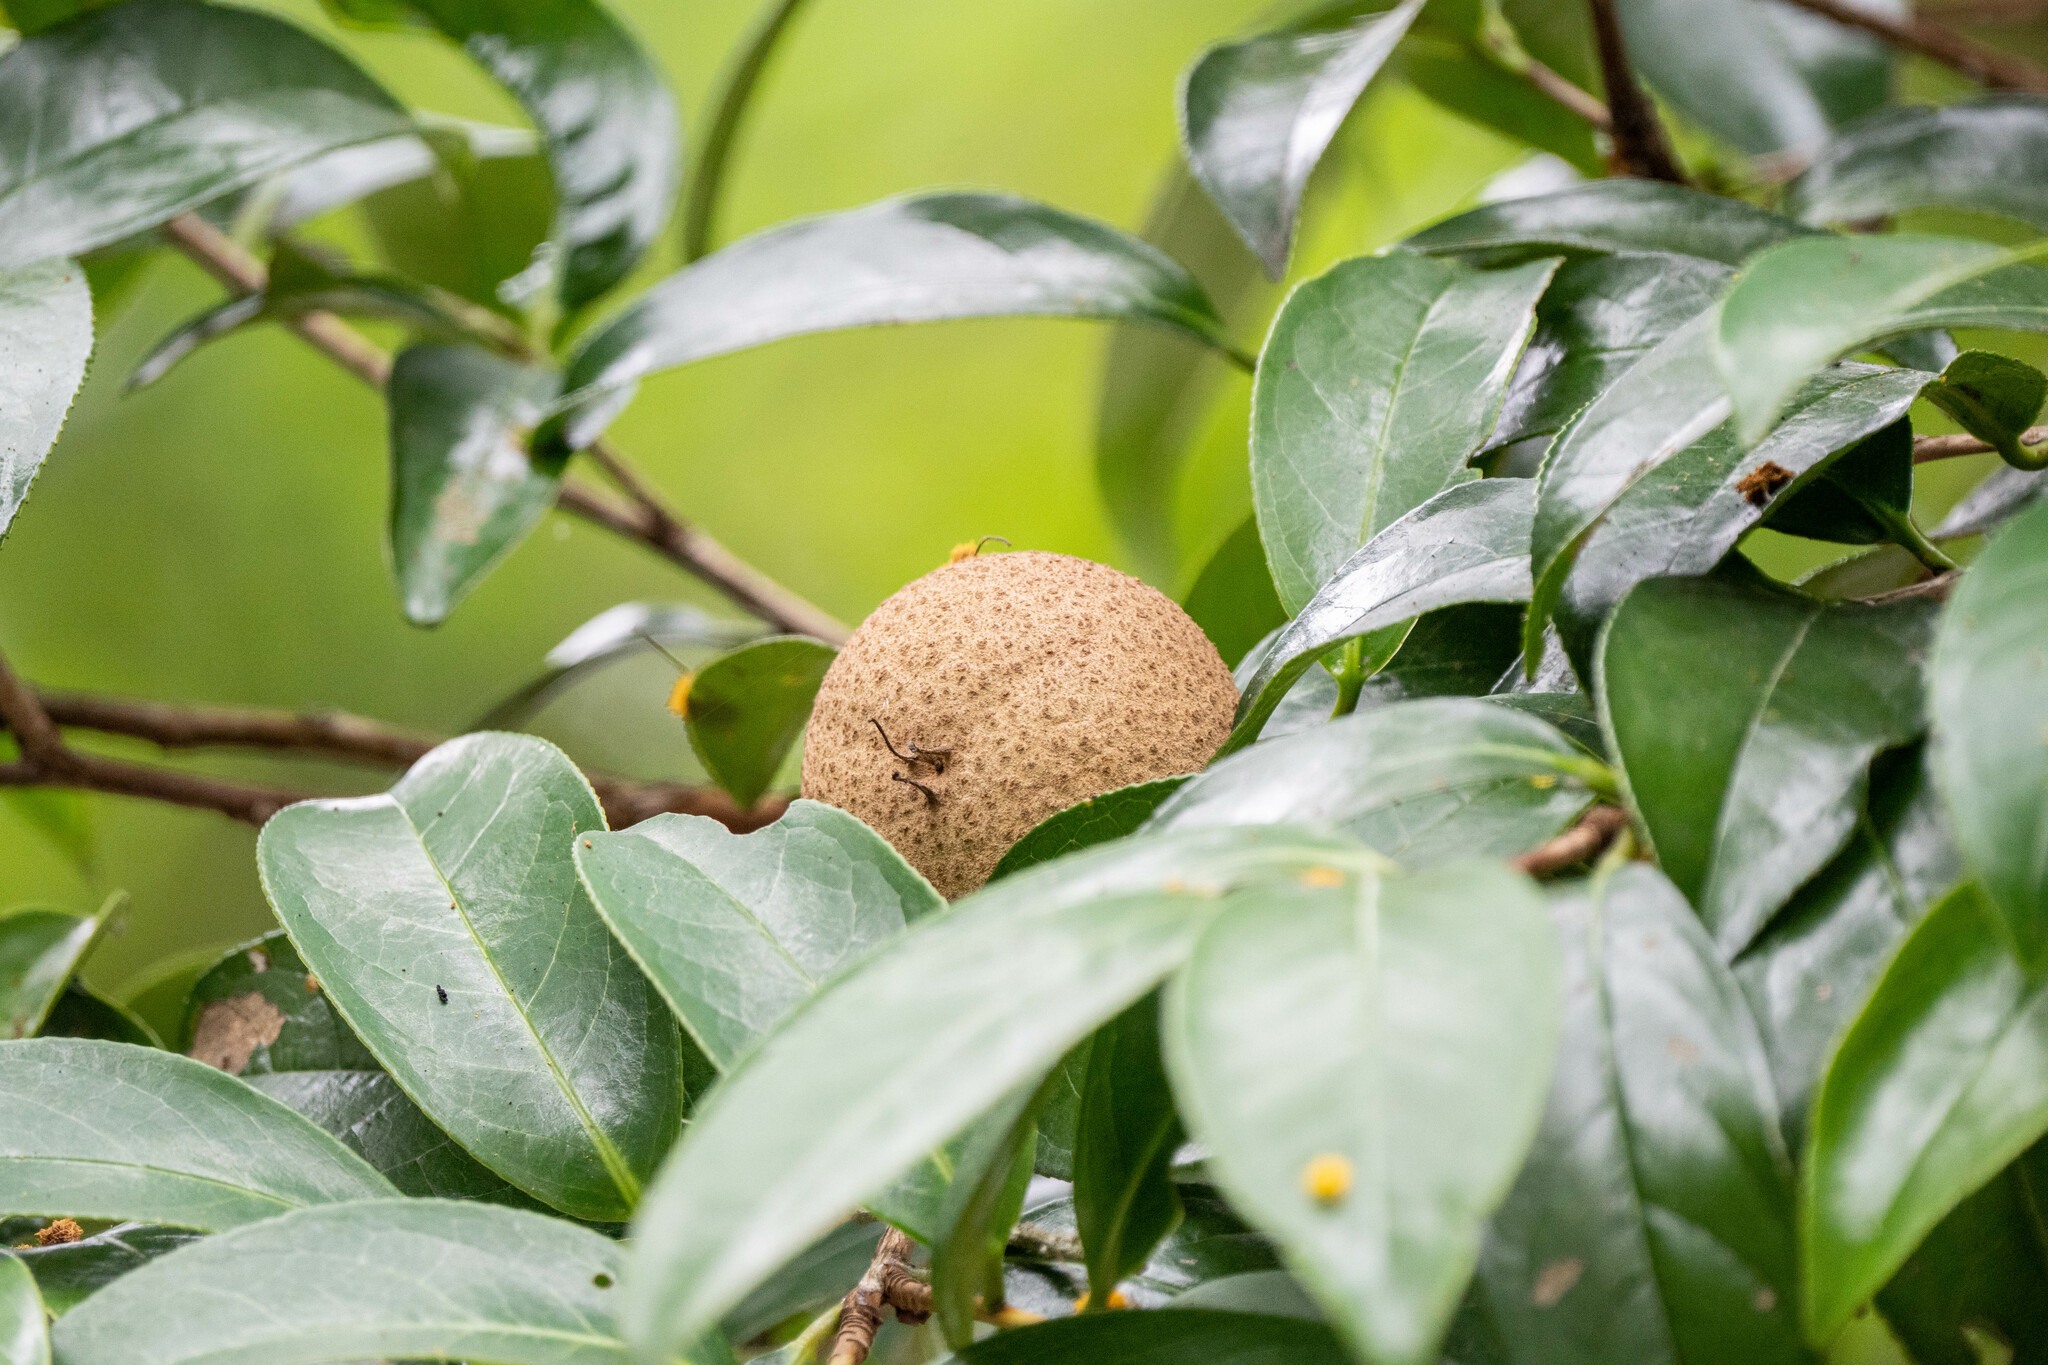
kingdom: Plantae
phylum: Tracheophyta
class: Magnoliopsida
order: Ericales
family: Theaceae
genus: Camellia
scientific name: Camellia crapnelliana
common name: Crapnell's camellia
